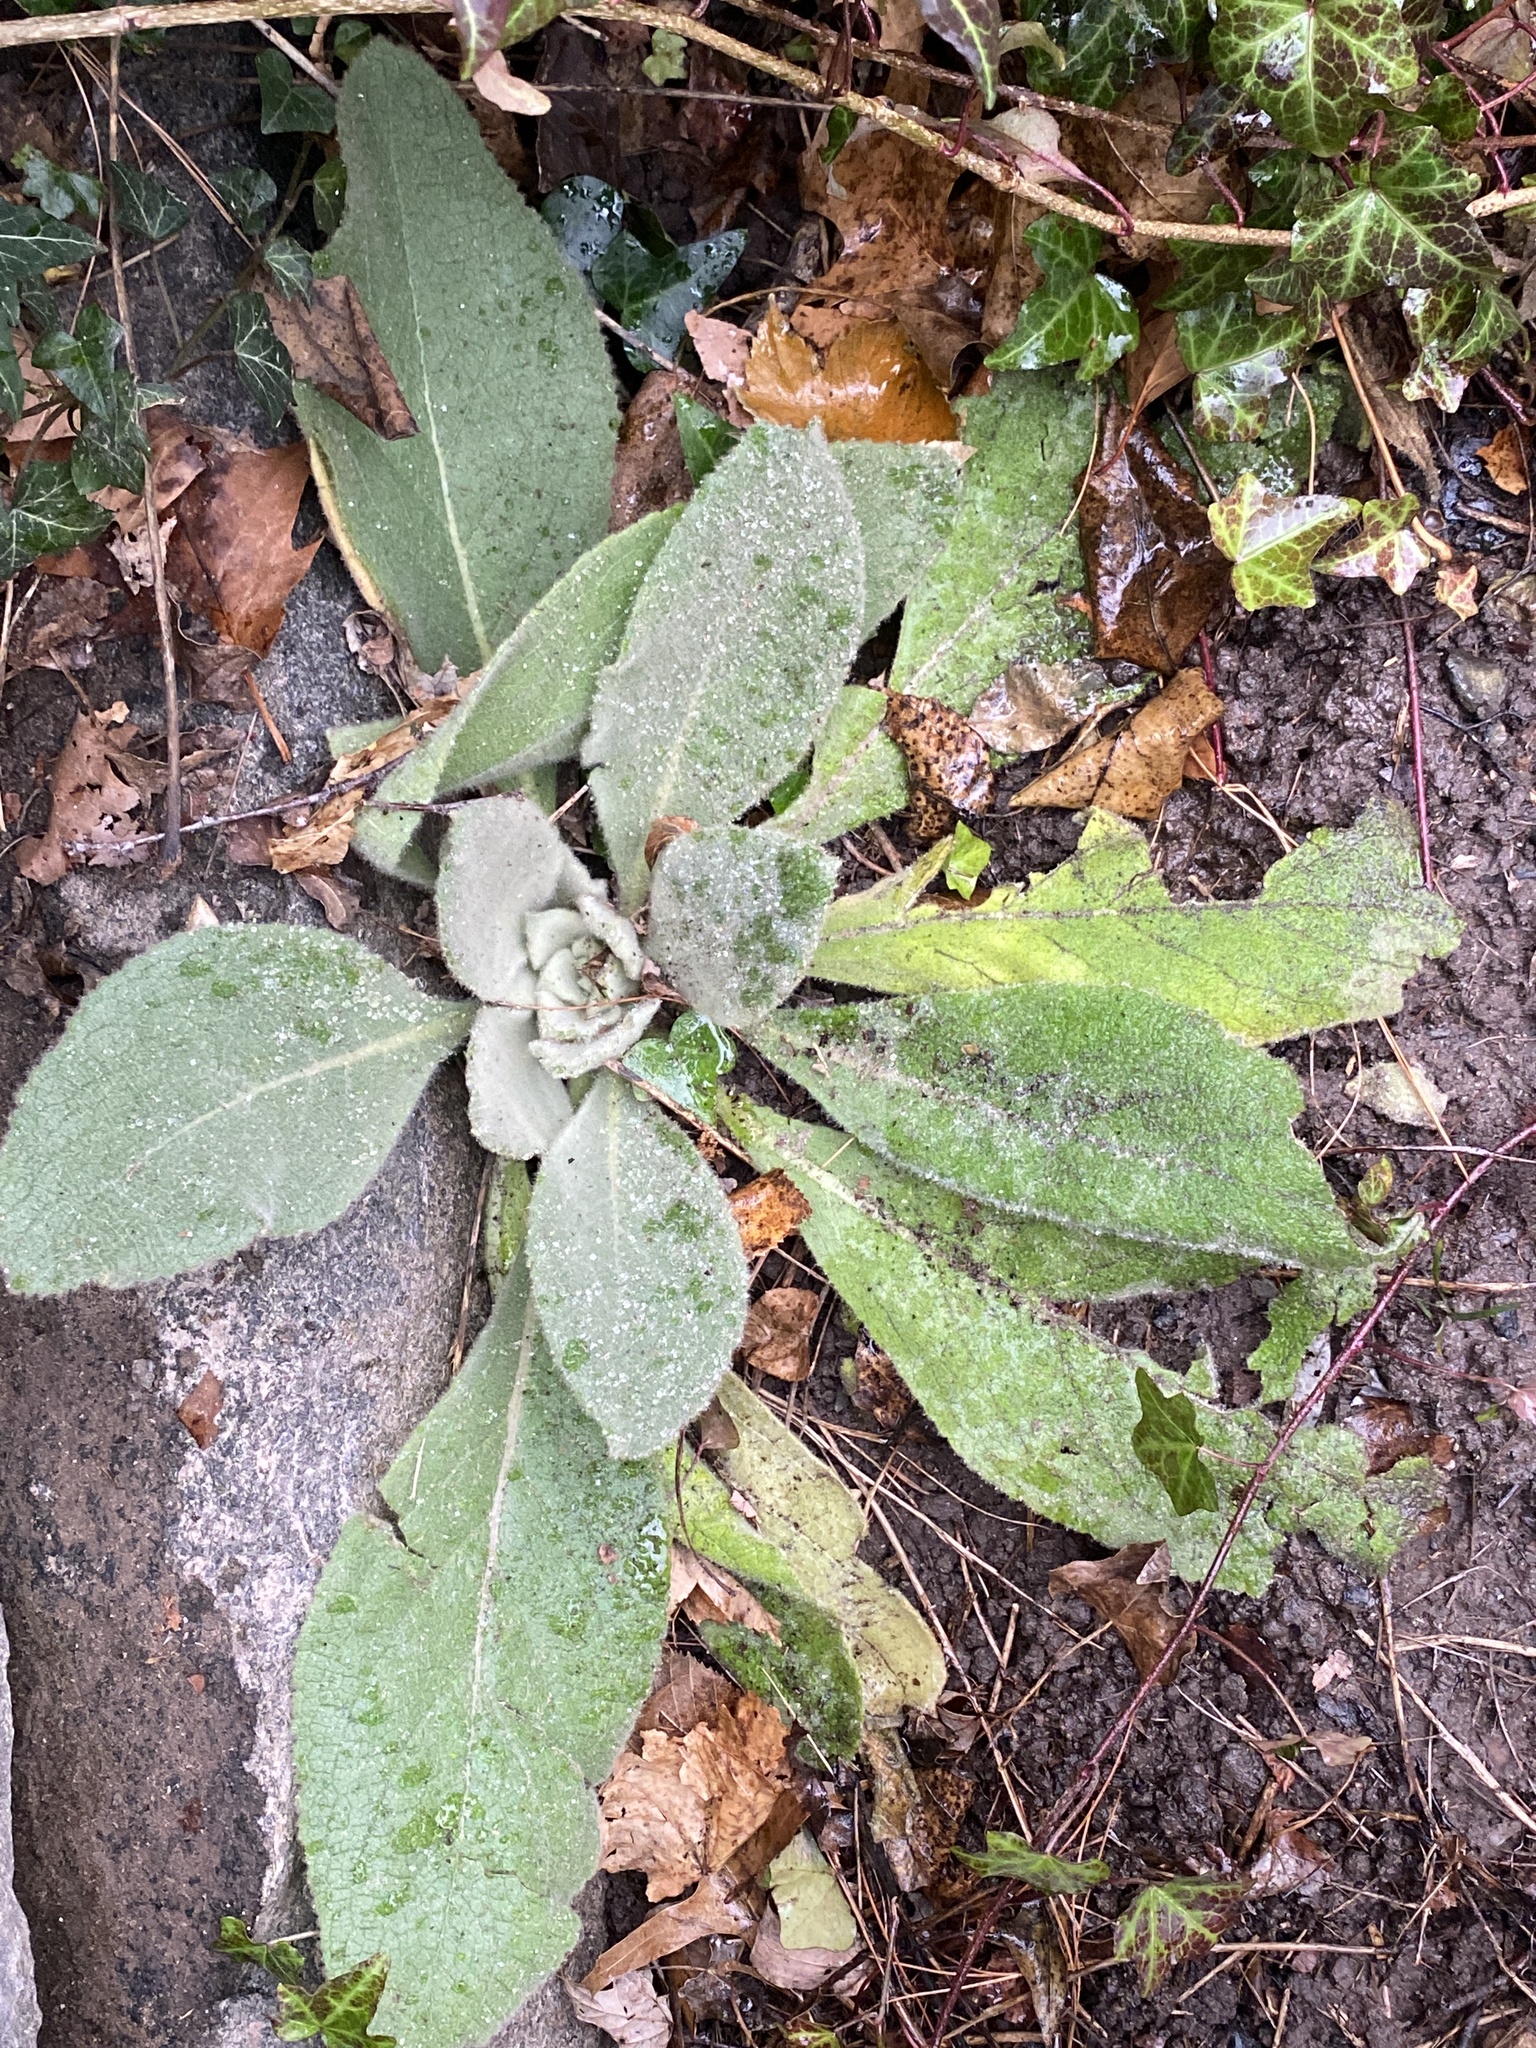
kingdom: Plantae
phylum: Tracheophyta
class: Magnoliopsida
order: Lamiales
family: Scrophulariaceae
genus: Verbascum
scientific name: Verbascum thapsus
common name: Common mullein
